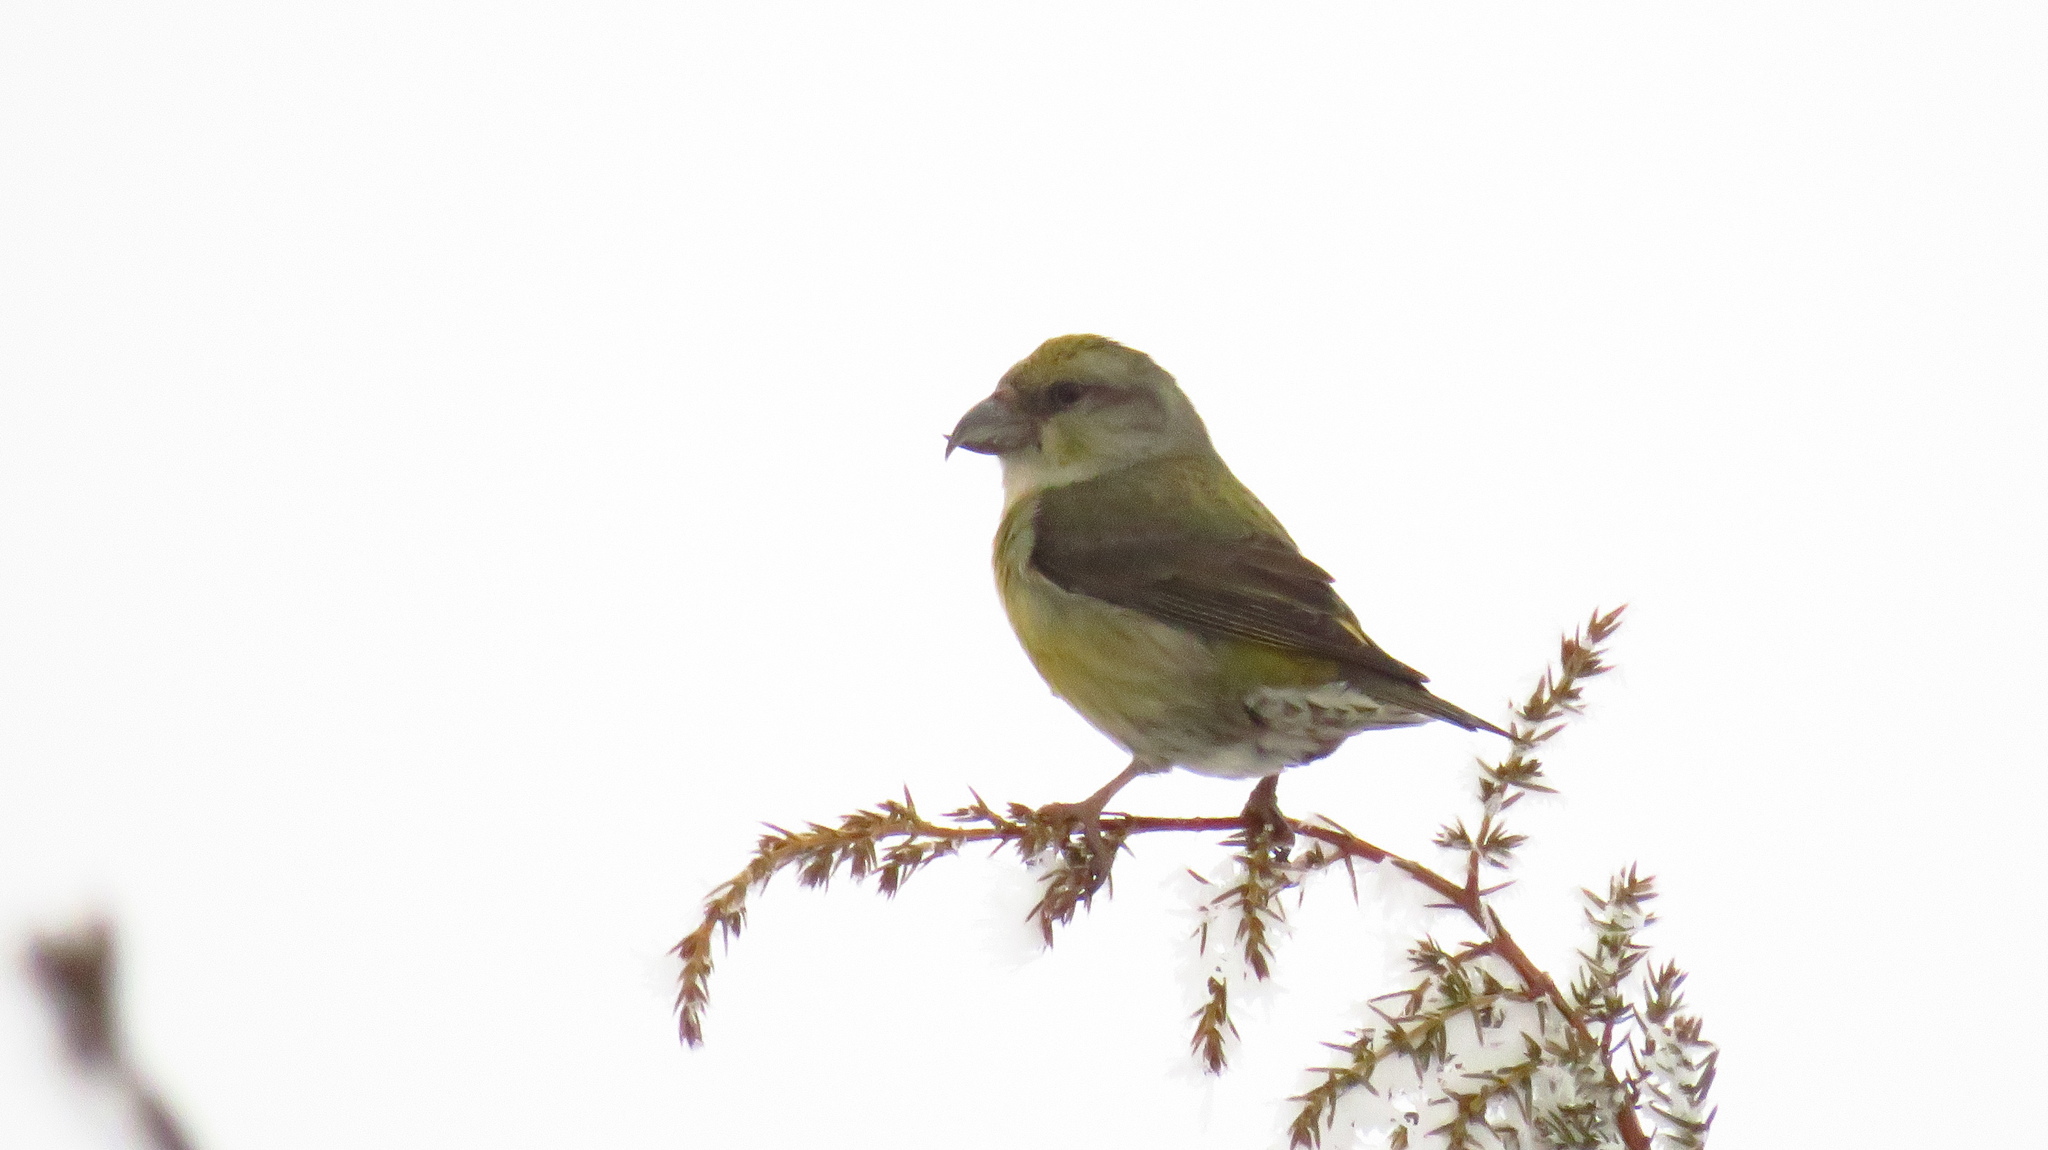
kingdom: Animalia
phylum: Chordata
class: Aves
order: Passeriformes
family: Fringillidae
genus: Loxia
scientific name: Loxia curvirostra
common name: Red crossbill
